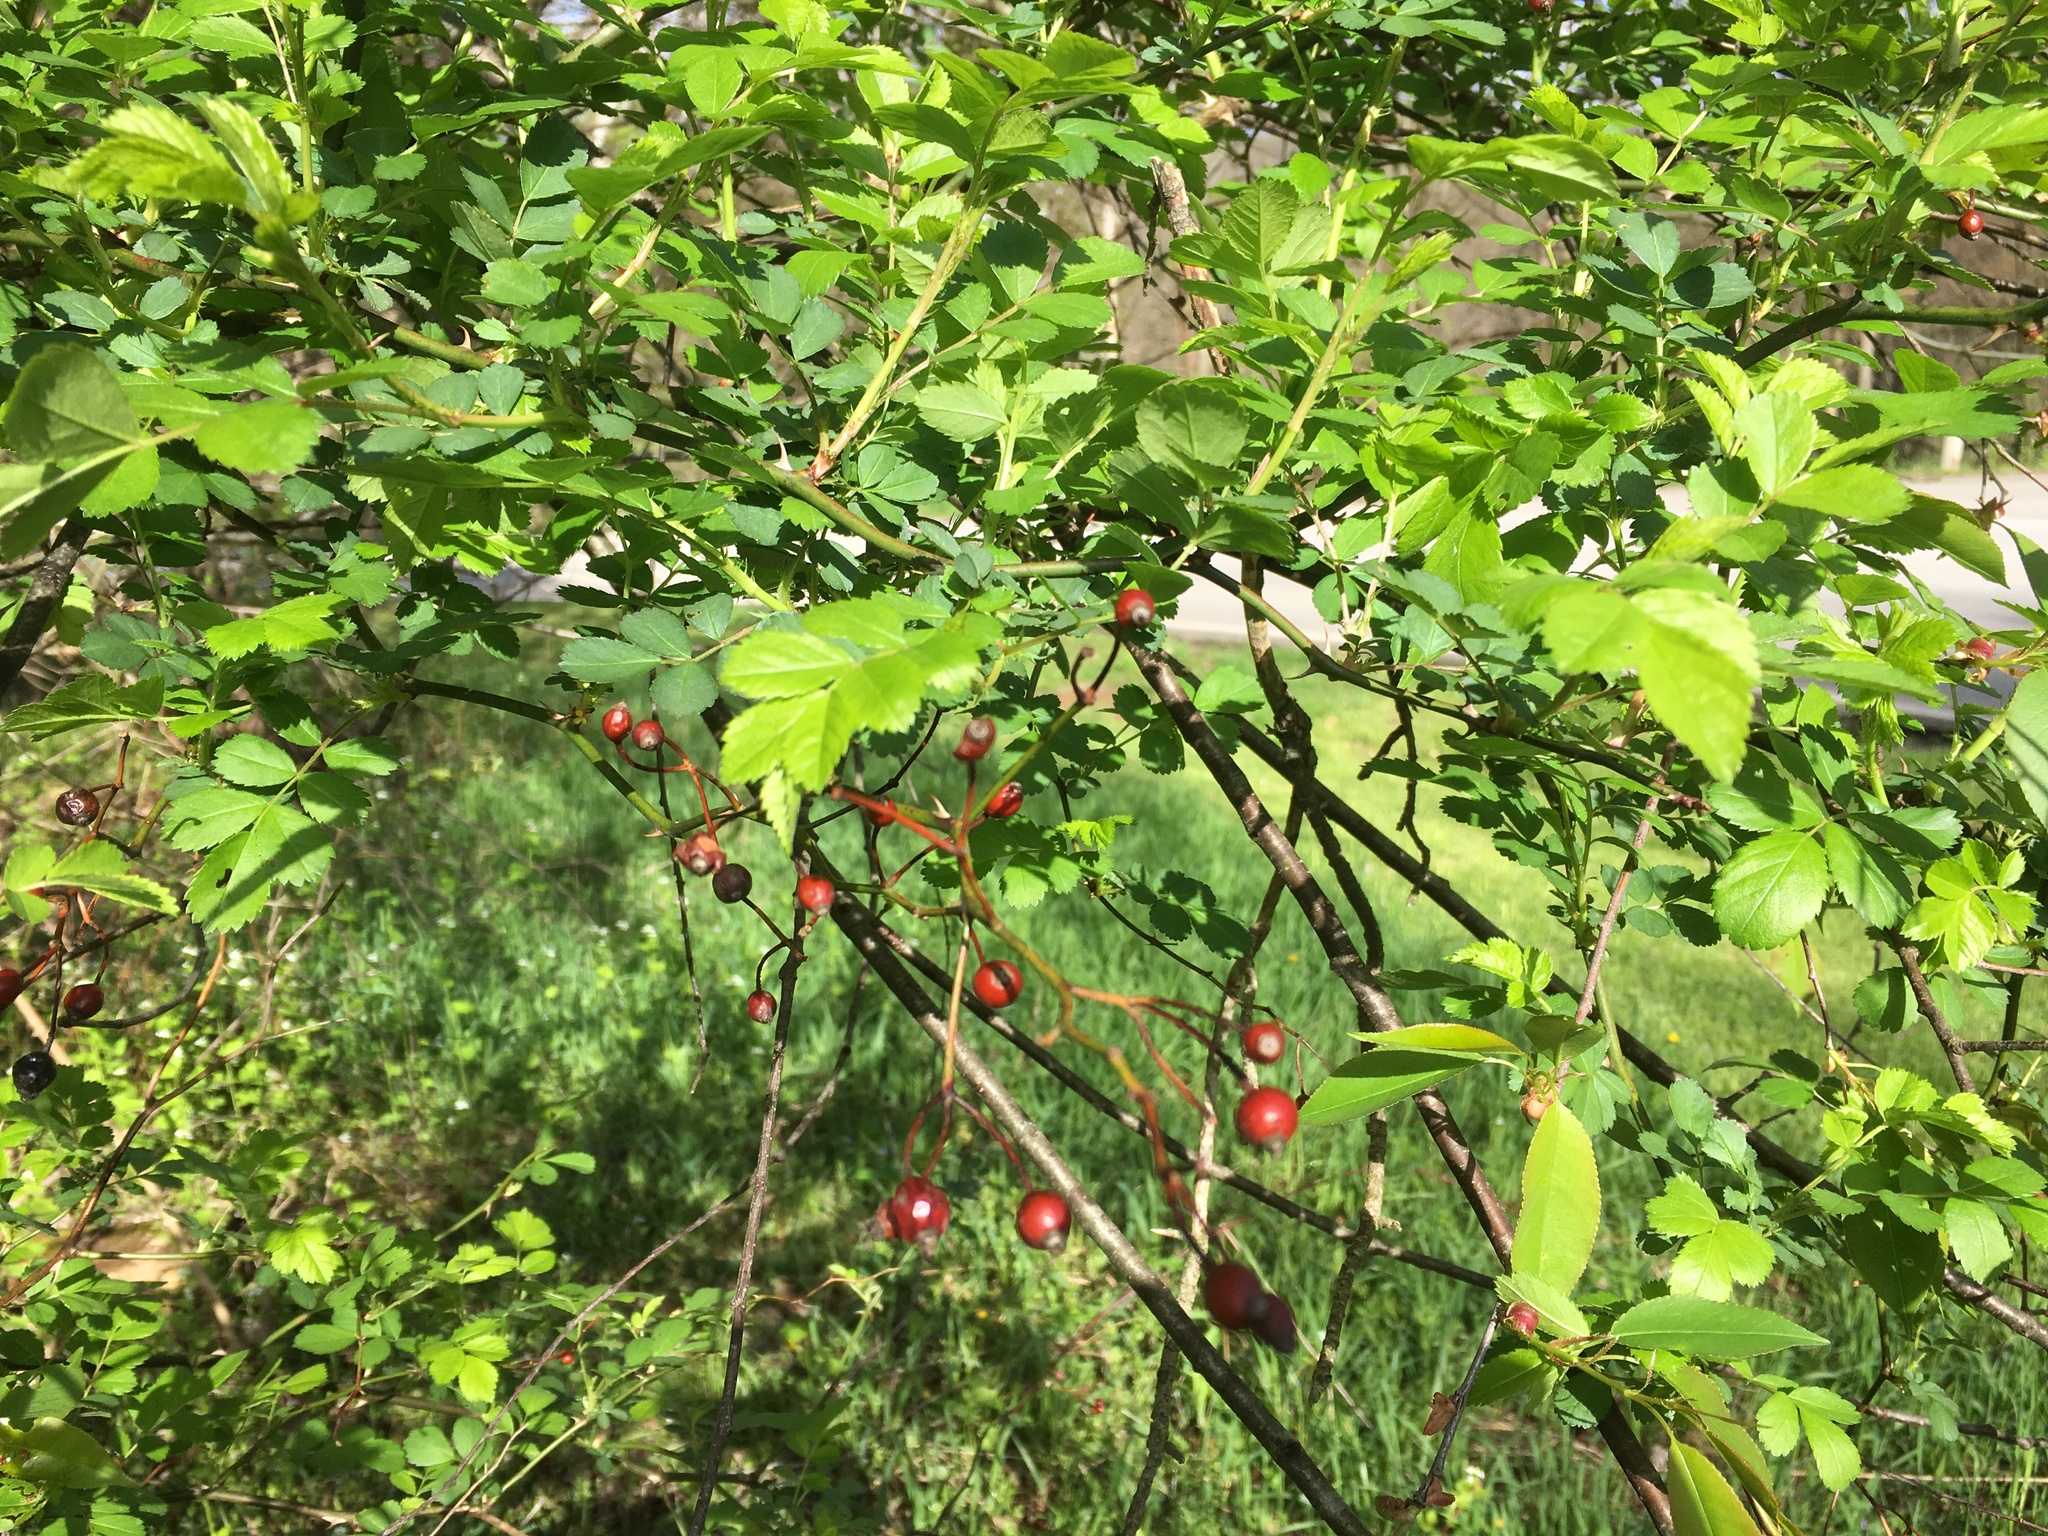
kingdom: Plantae
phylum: Tracheophyta
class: Magnoliopsida
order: Rosales
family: Rosaceae
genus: Rosa
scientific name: Rosa multiflora
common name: Multiflora rose
